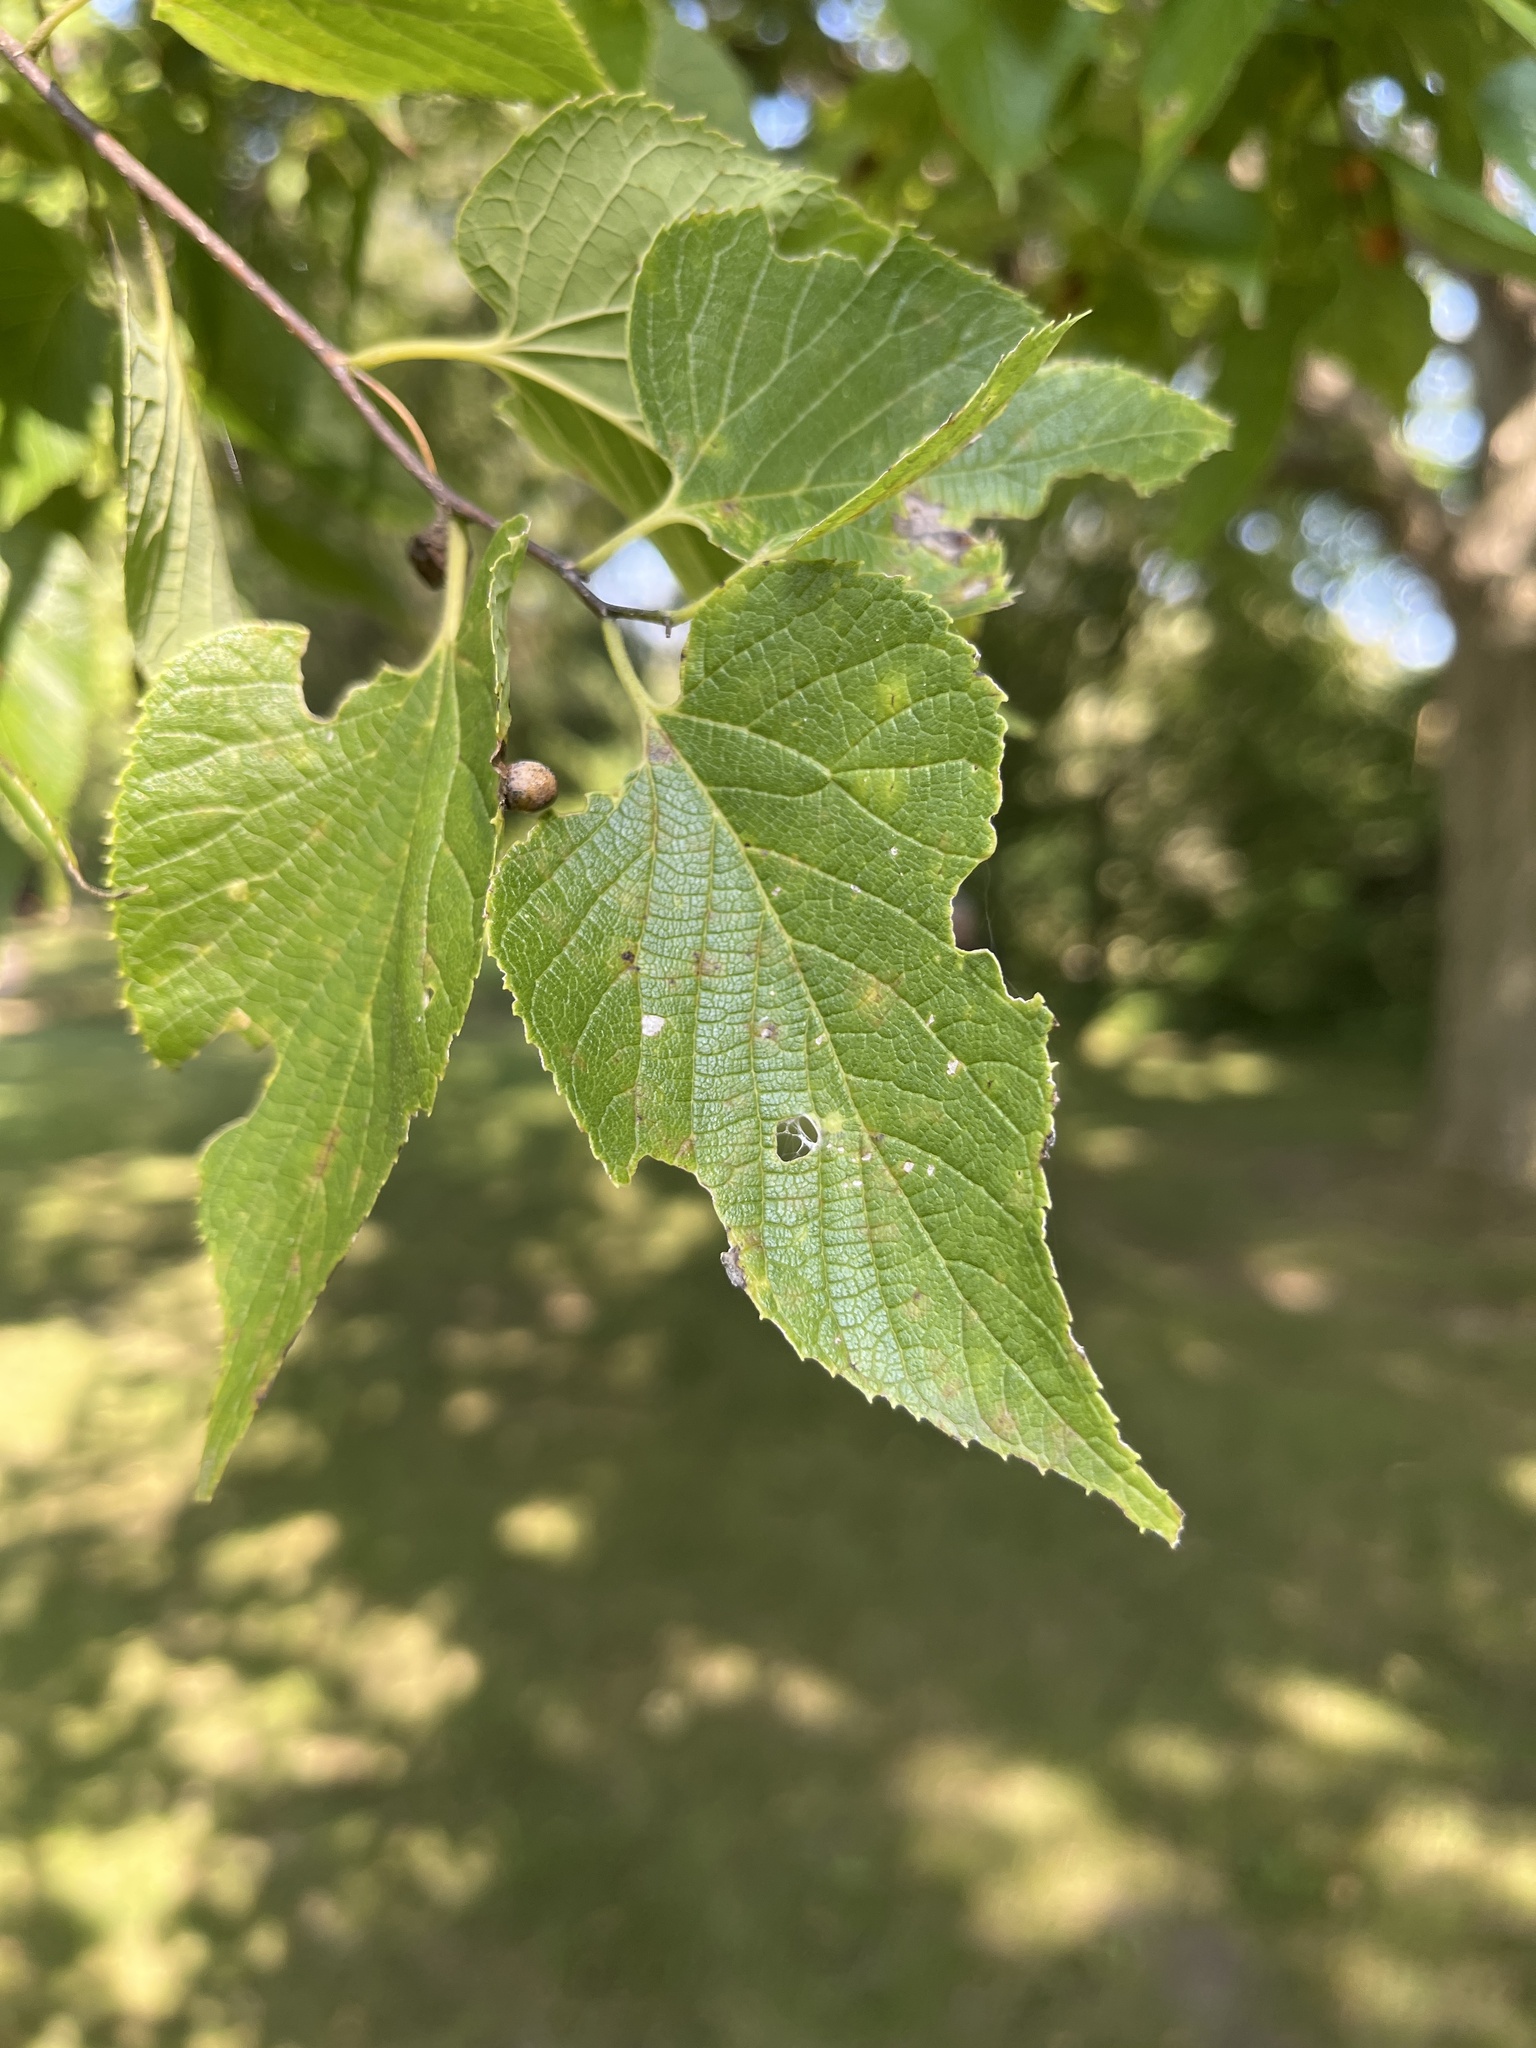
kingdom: Plantae
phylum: Tracheophyta
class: Magnoliopsida
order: Rosales
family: Cannabaceae
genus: Celtis
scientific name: Celtis occidentalis
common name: Common hackberry
